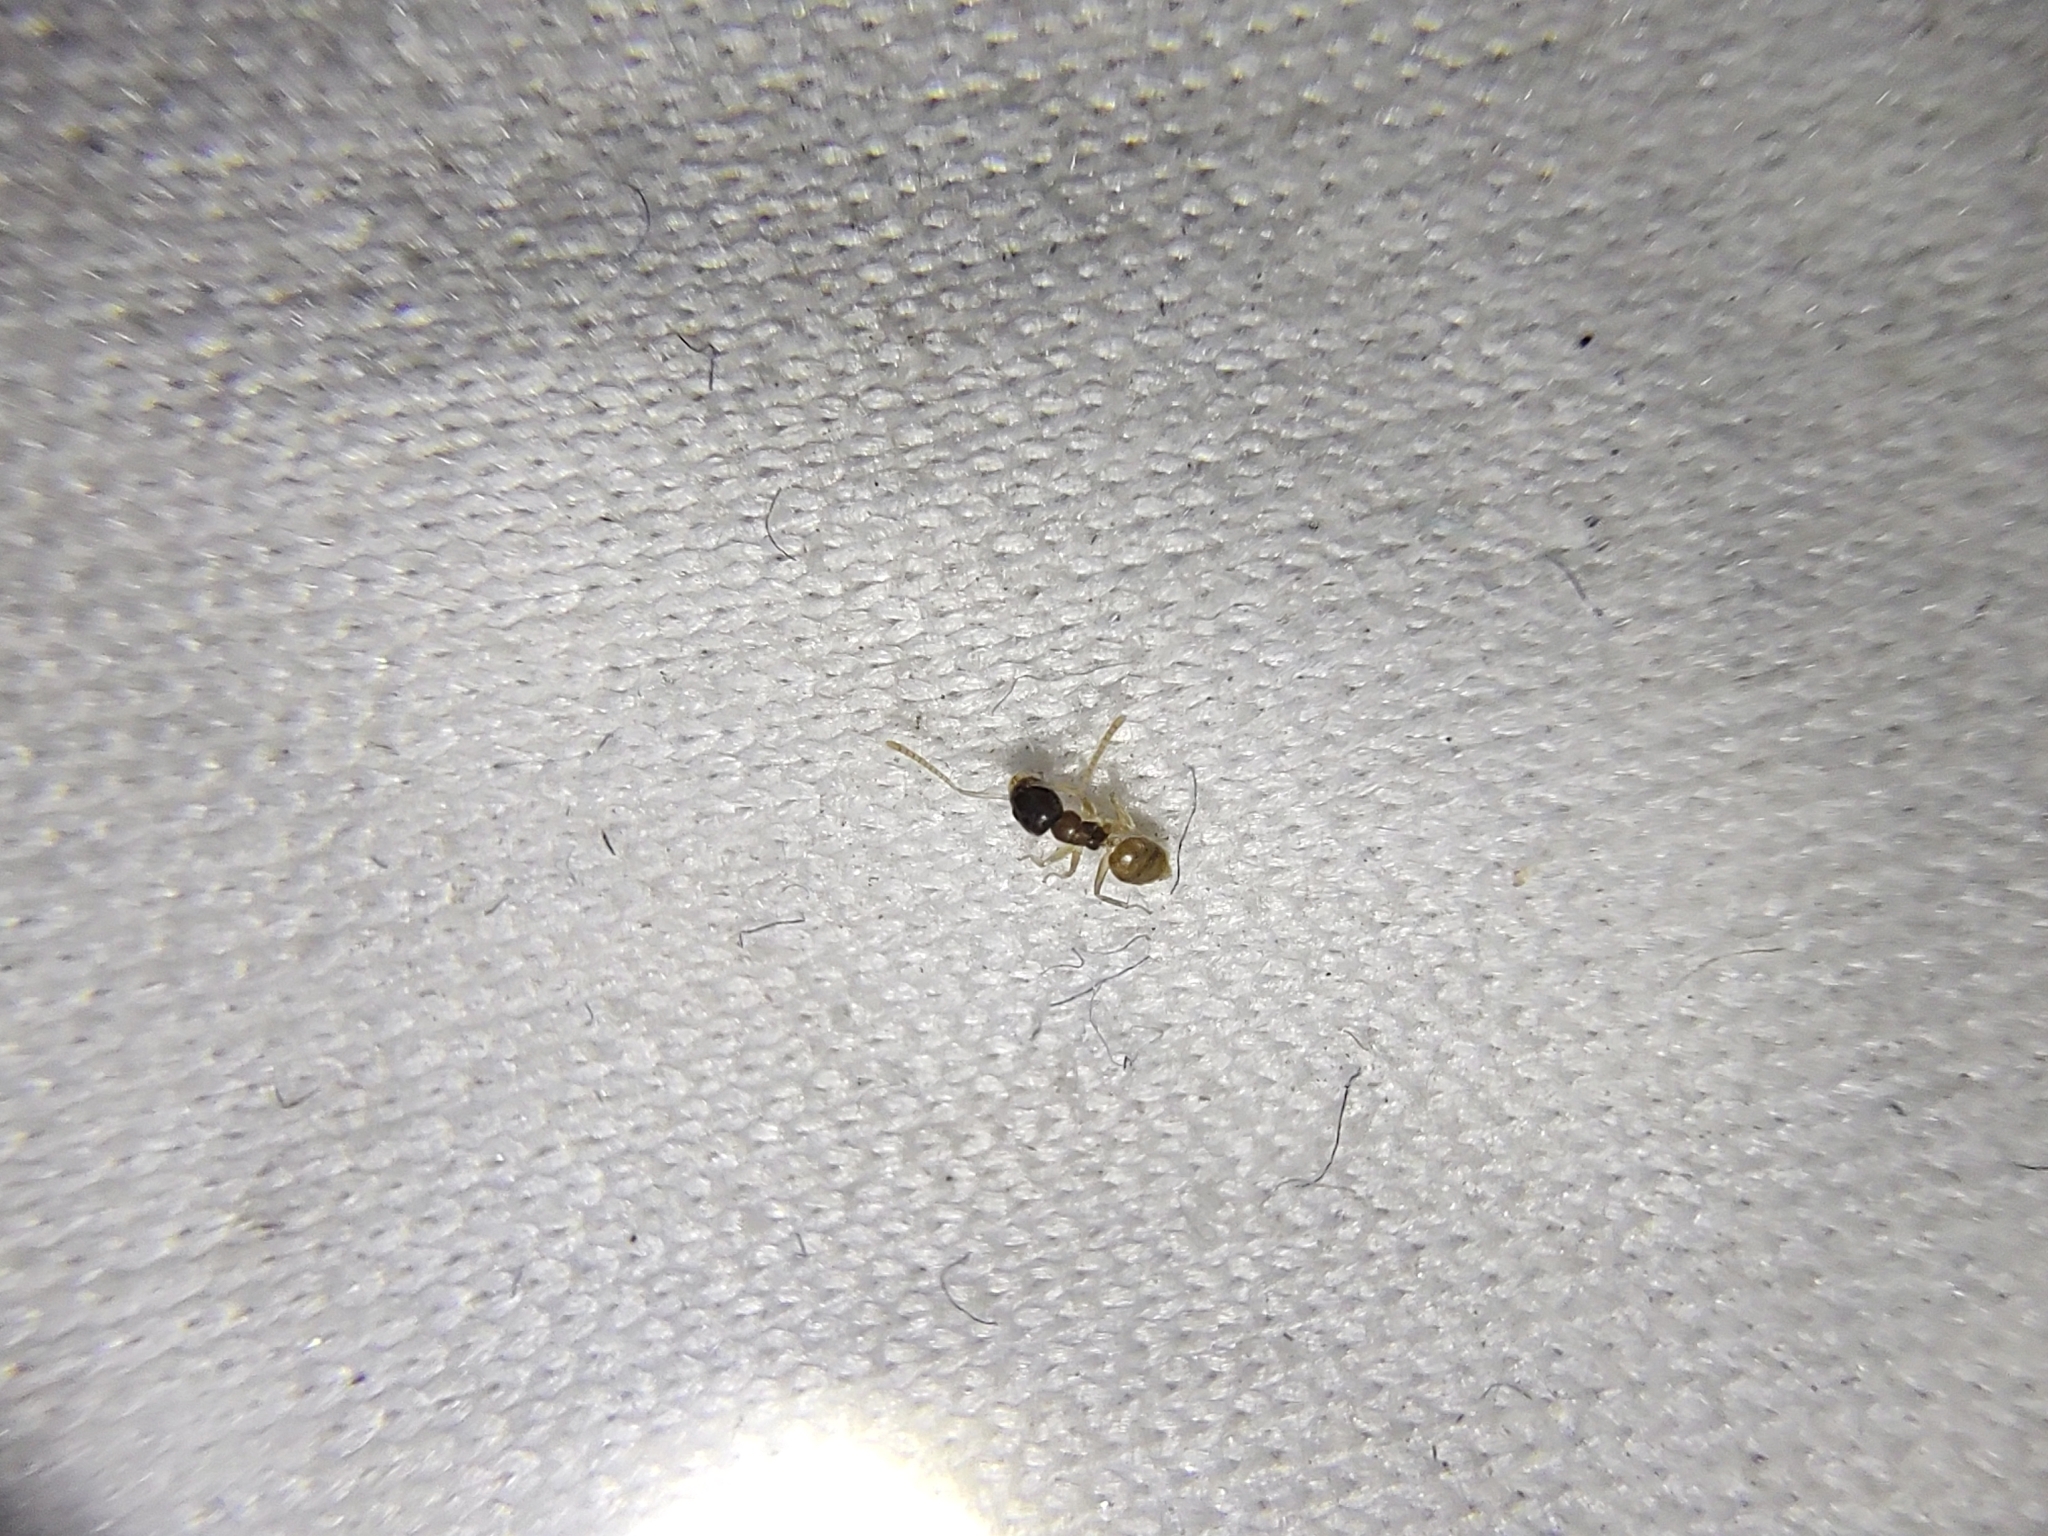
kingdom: Animalia
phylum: Arthropoda
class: Insecta
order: Hymenoptera
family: Formicidae
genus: Tapinoma
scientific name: Tapinoma melanocephalum
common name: Ghost ant
